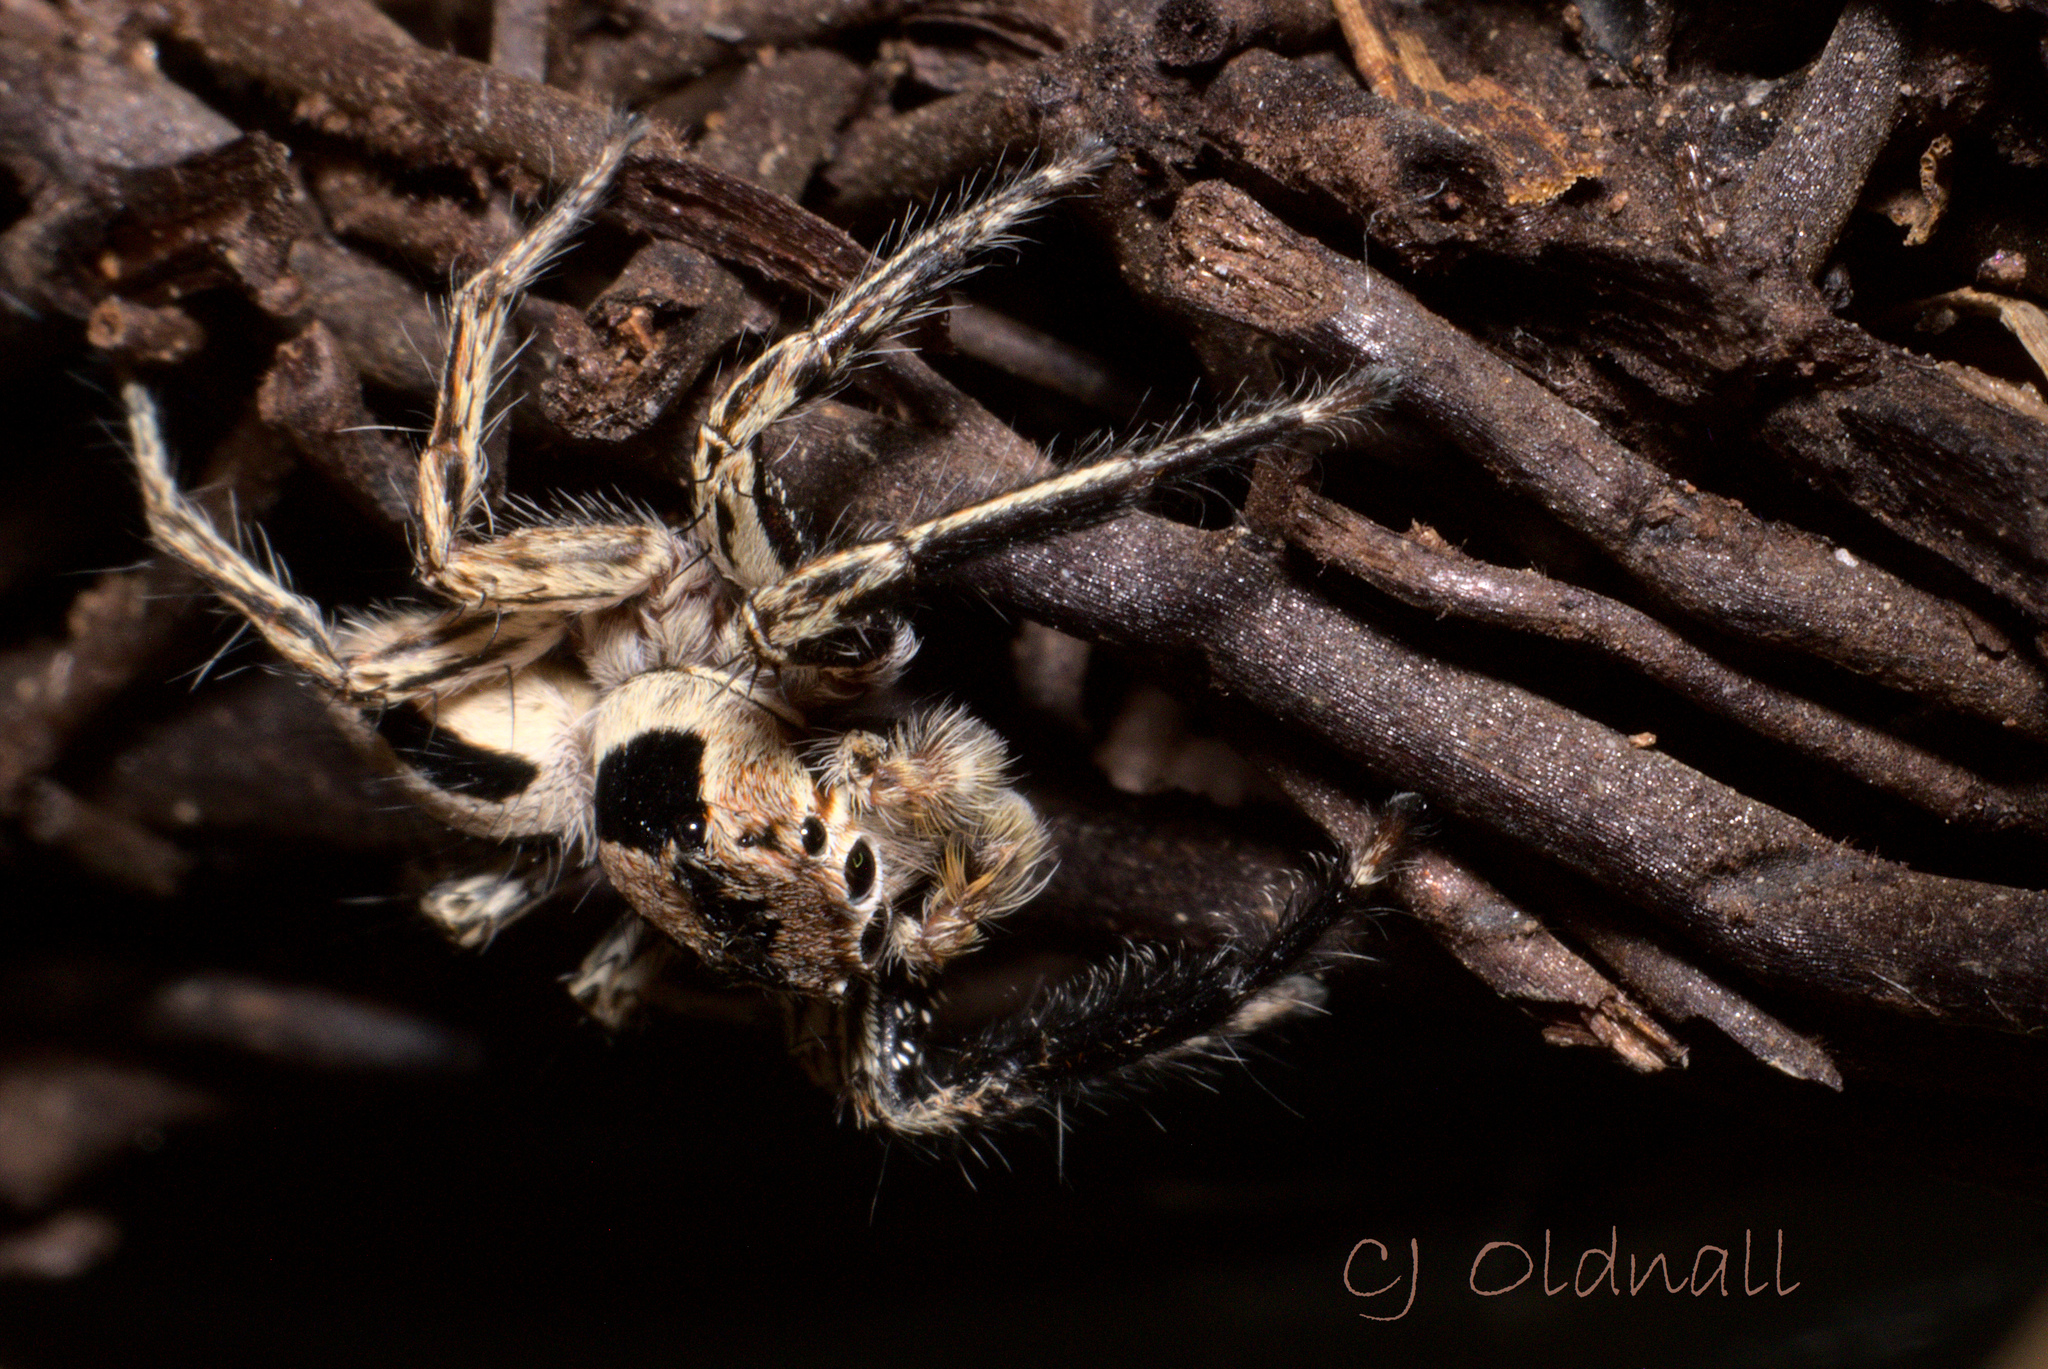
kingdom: Animalia
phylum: Arthropoda
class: Arachnida
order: Araneae
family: Salticidae
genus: Plexippus
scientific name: Plexippus petersi
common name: Jumping spider
